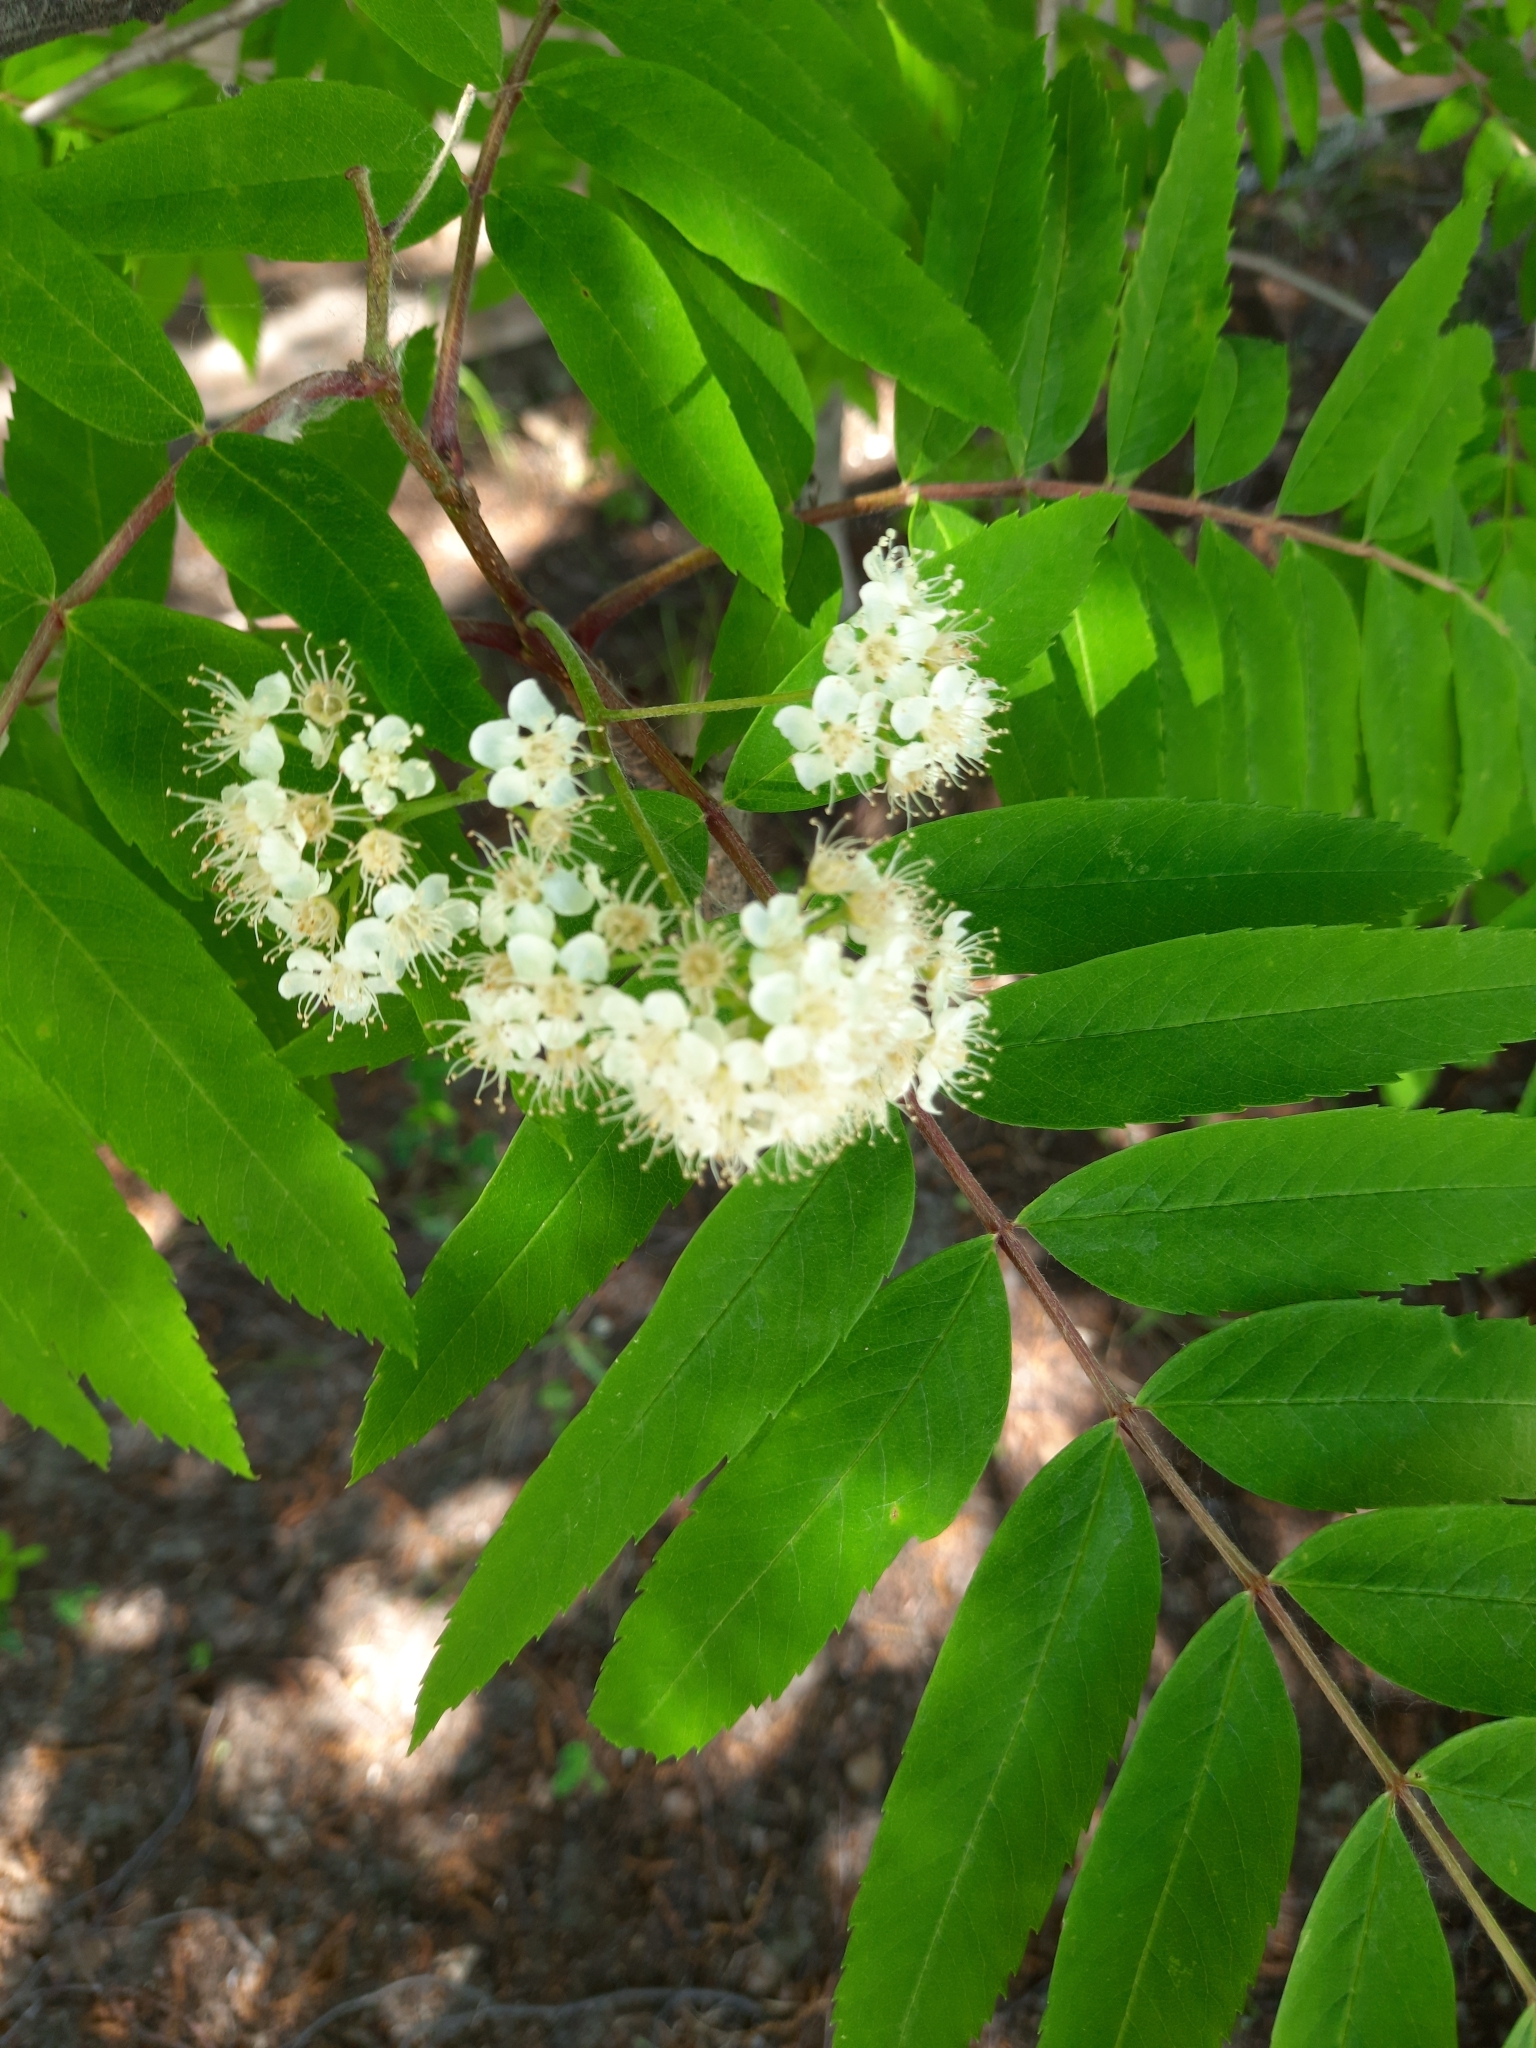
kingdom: Plantae
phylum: Tracheophyta
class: Magnoliopsida
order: Rosales
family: Rosaceae
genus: Sorbus
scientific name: Sorbus aucuparia
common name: Rowan
